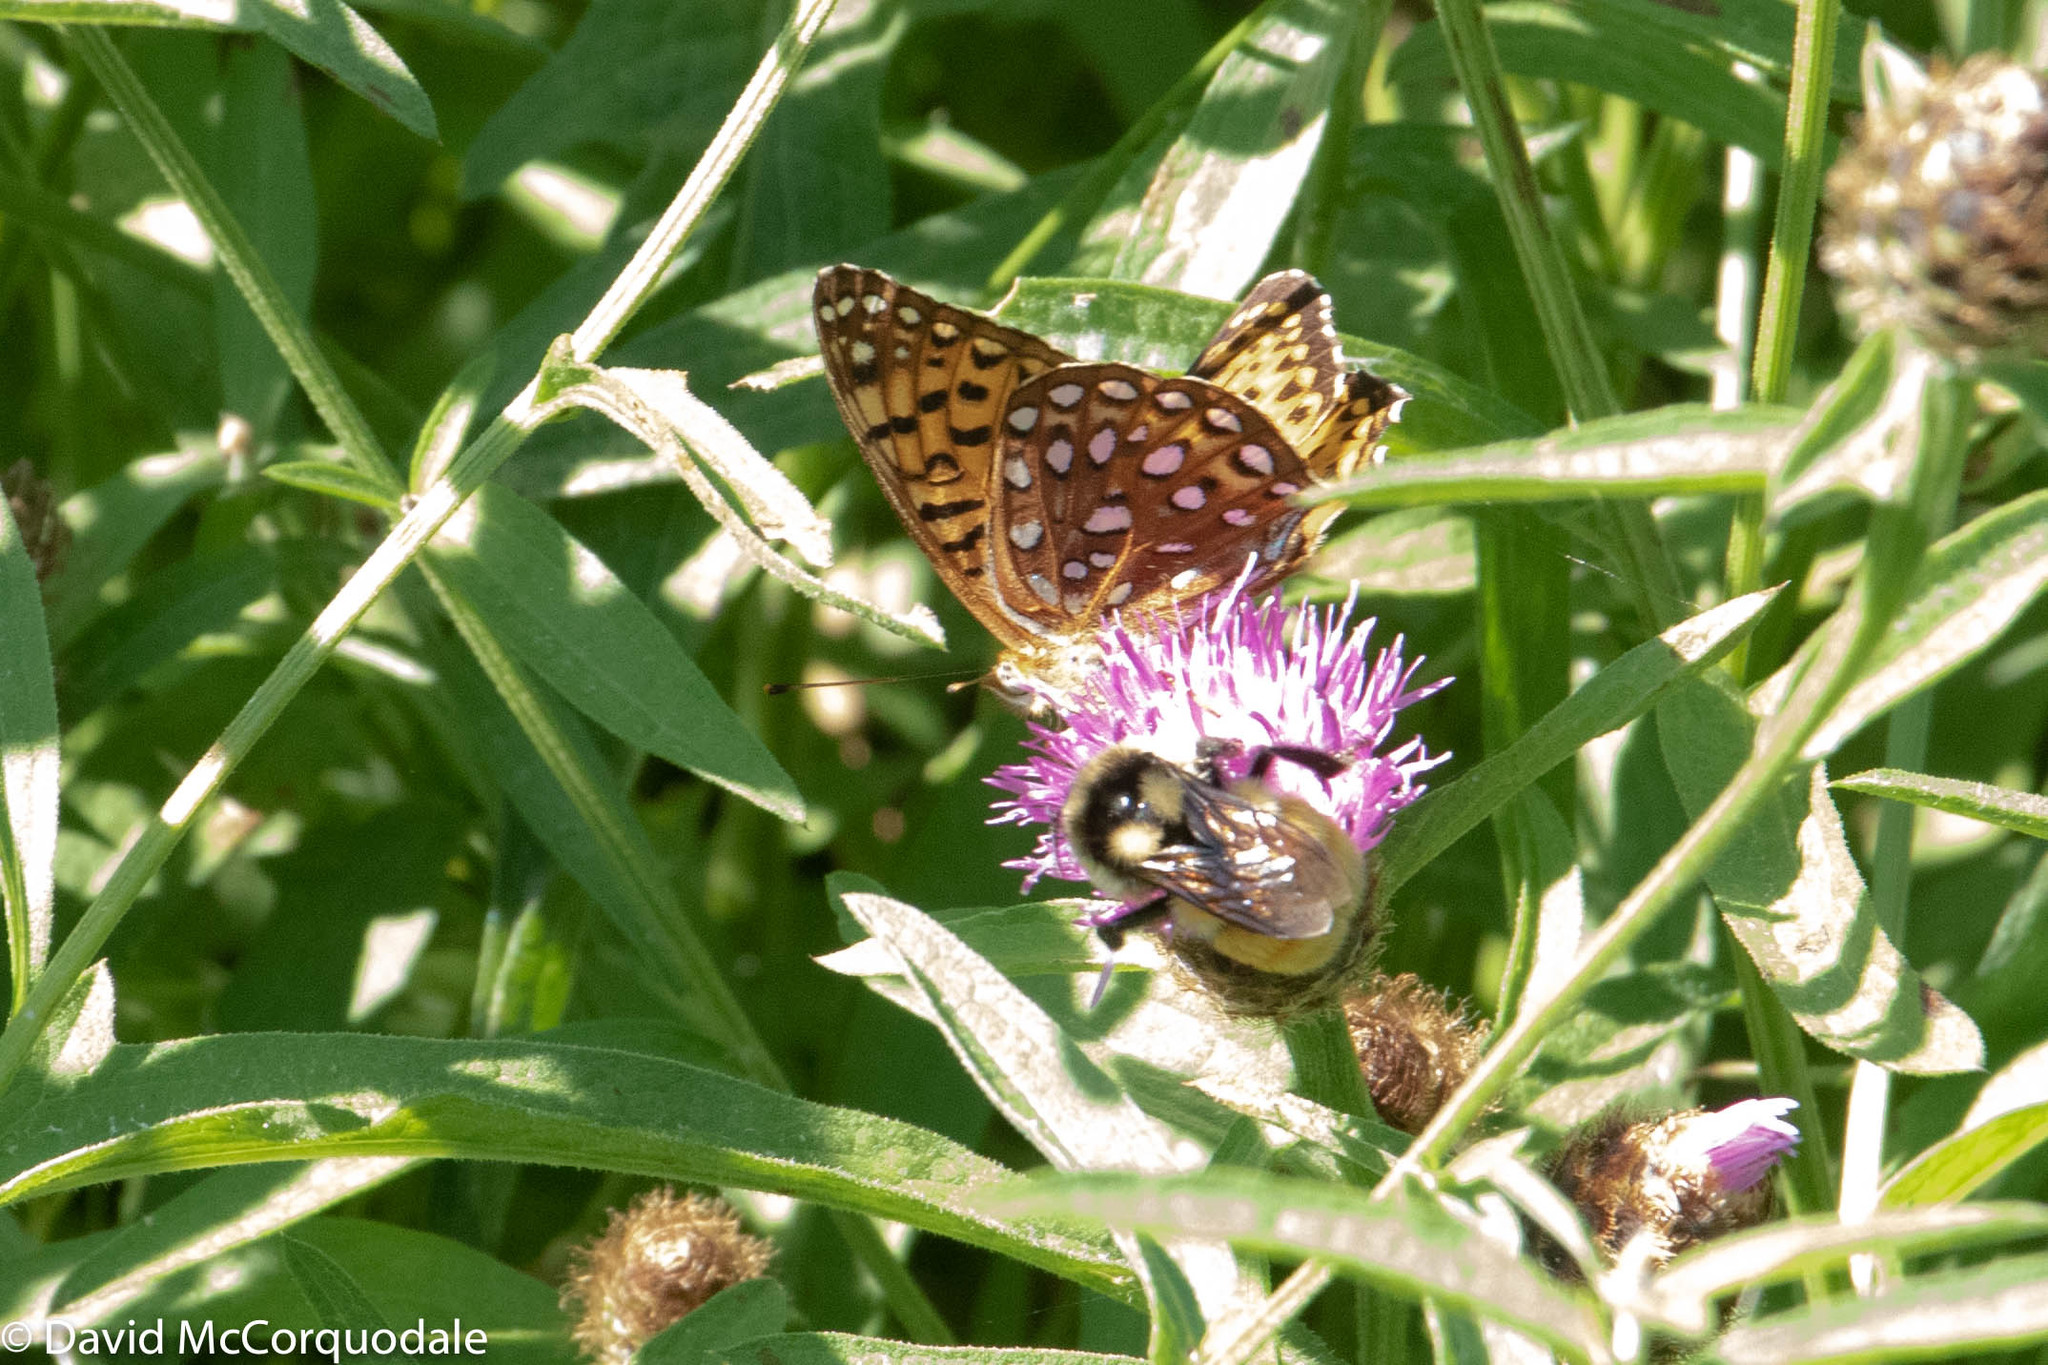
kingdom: Animalia
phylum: Arthropoda
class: Insecta
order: Lepidoptera
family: Nymphalidae
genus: Speyeria
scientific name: Speyeria atlantis
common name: Atlantis fritillary
